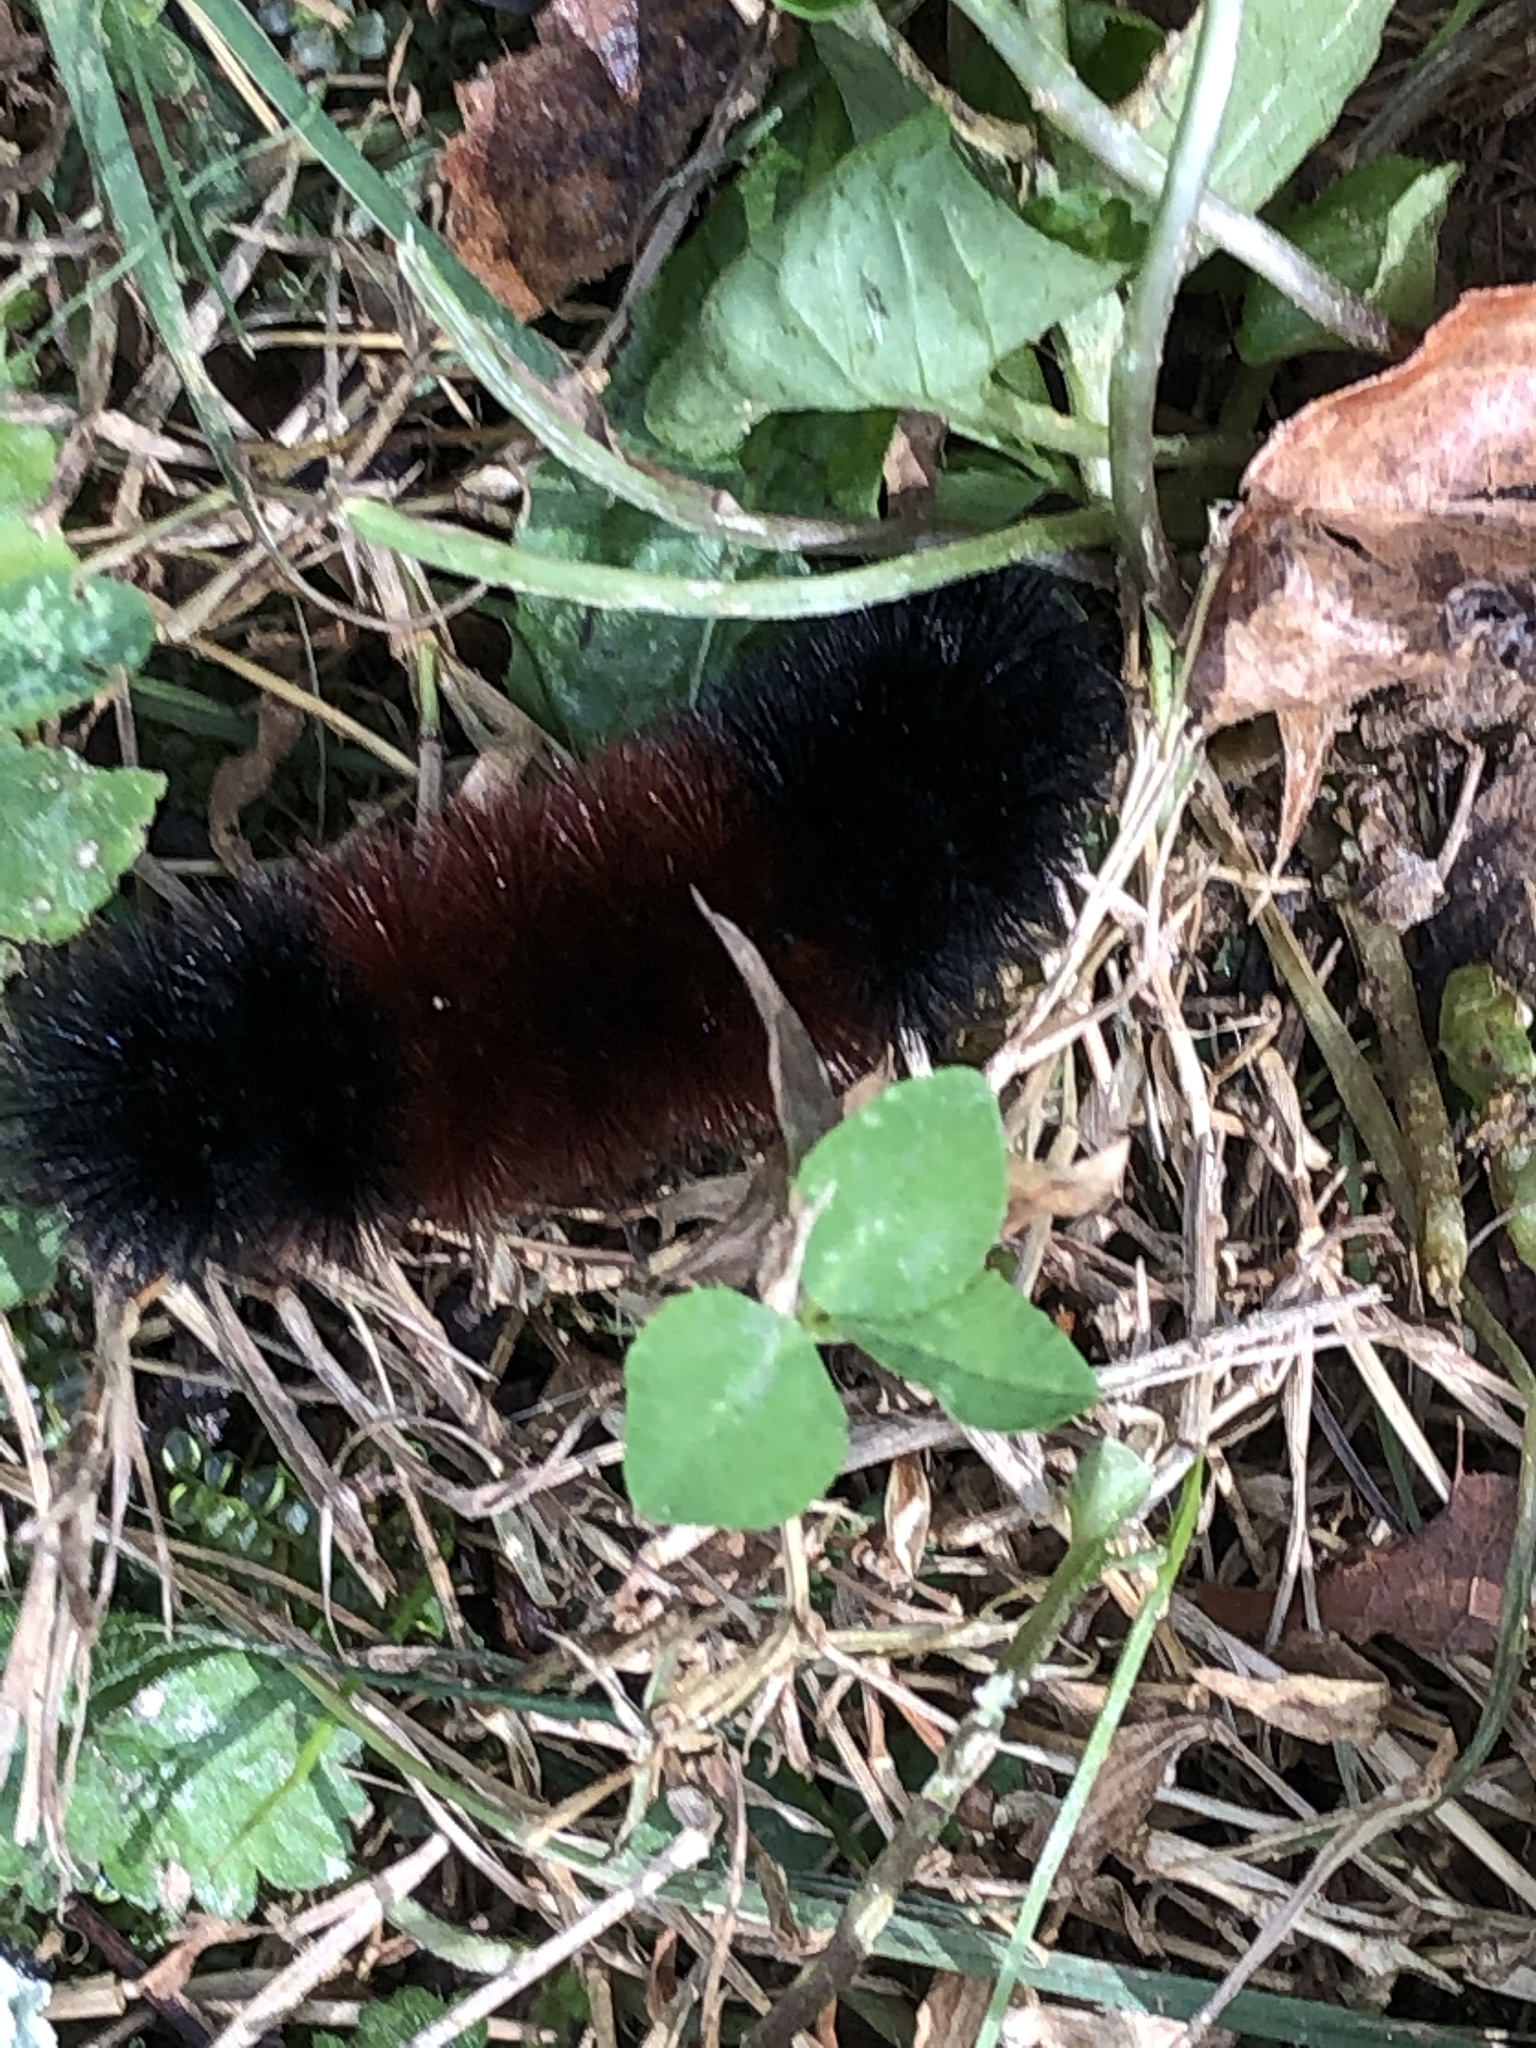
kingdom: Animalia
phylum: Arthropoda
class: Insecta
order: Lepidoptera
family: Erebidae
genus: Pyrrharctia
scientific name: Pyrrharctia isabella
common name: Isabella tiger moth
